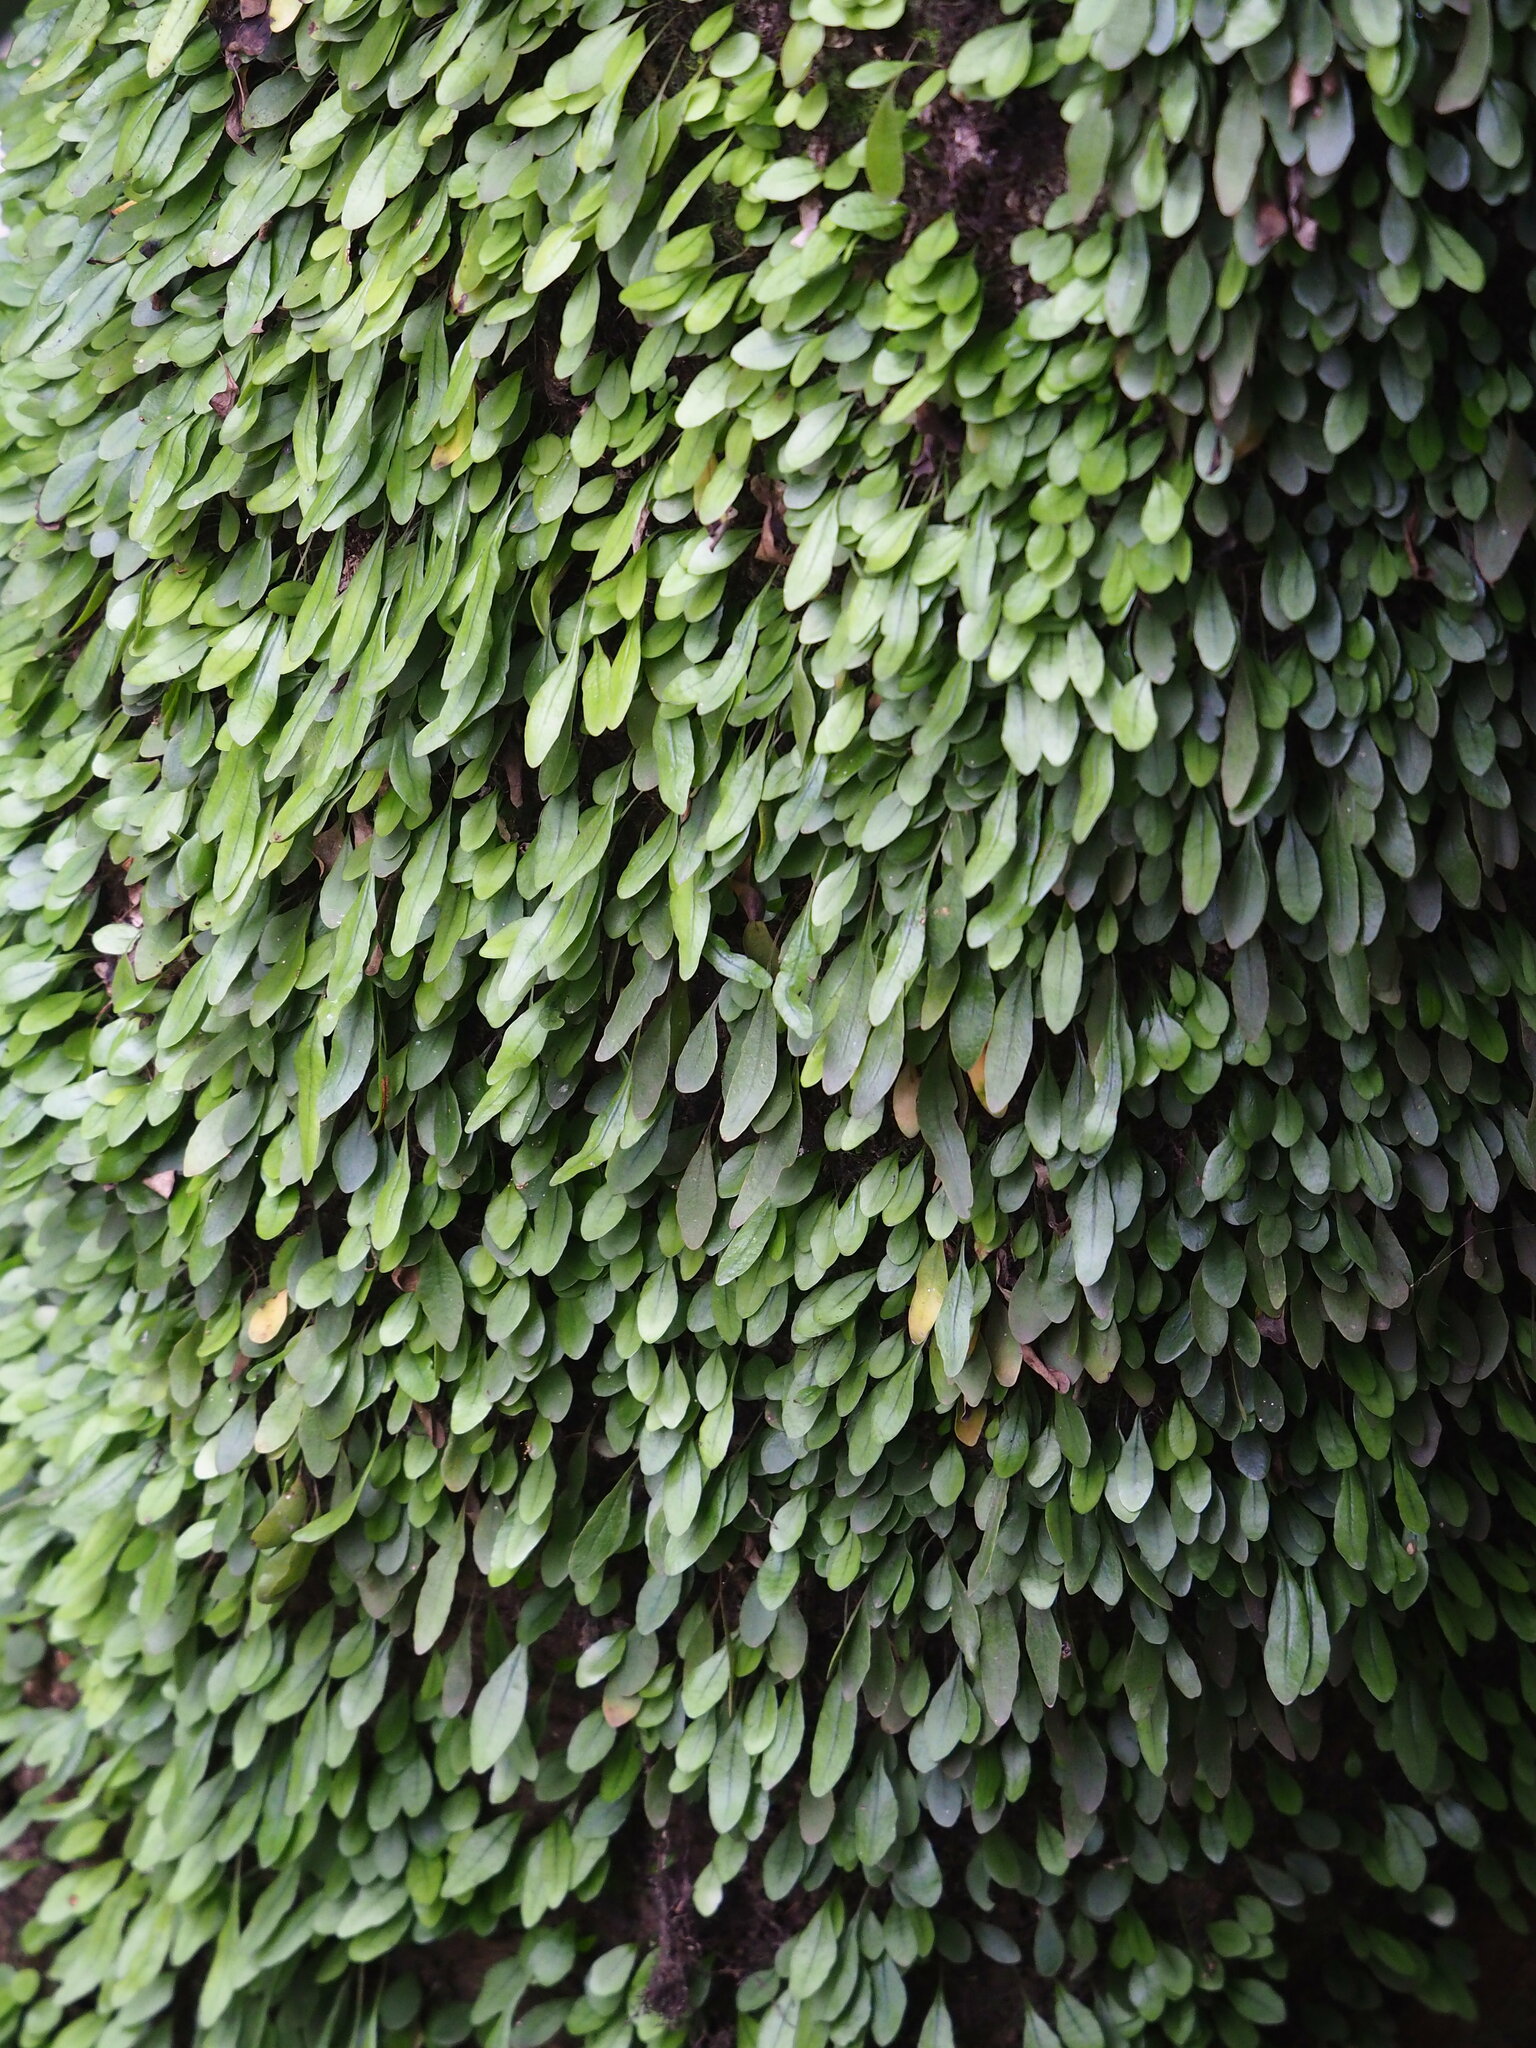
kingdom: Plantae
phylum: Tracheophyta
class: Polypodiopsida
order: Polypodiales
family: Polypodiaceae
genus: Lepisorus
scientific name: Lepisorus microphyllus
